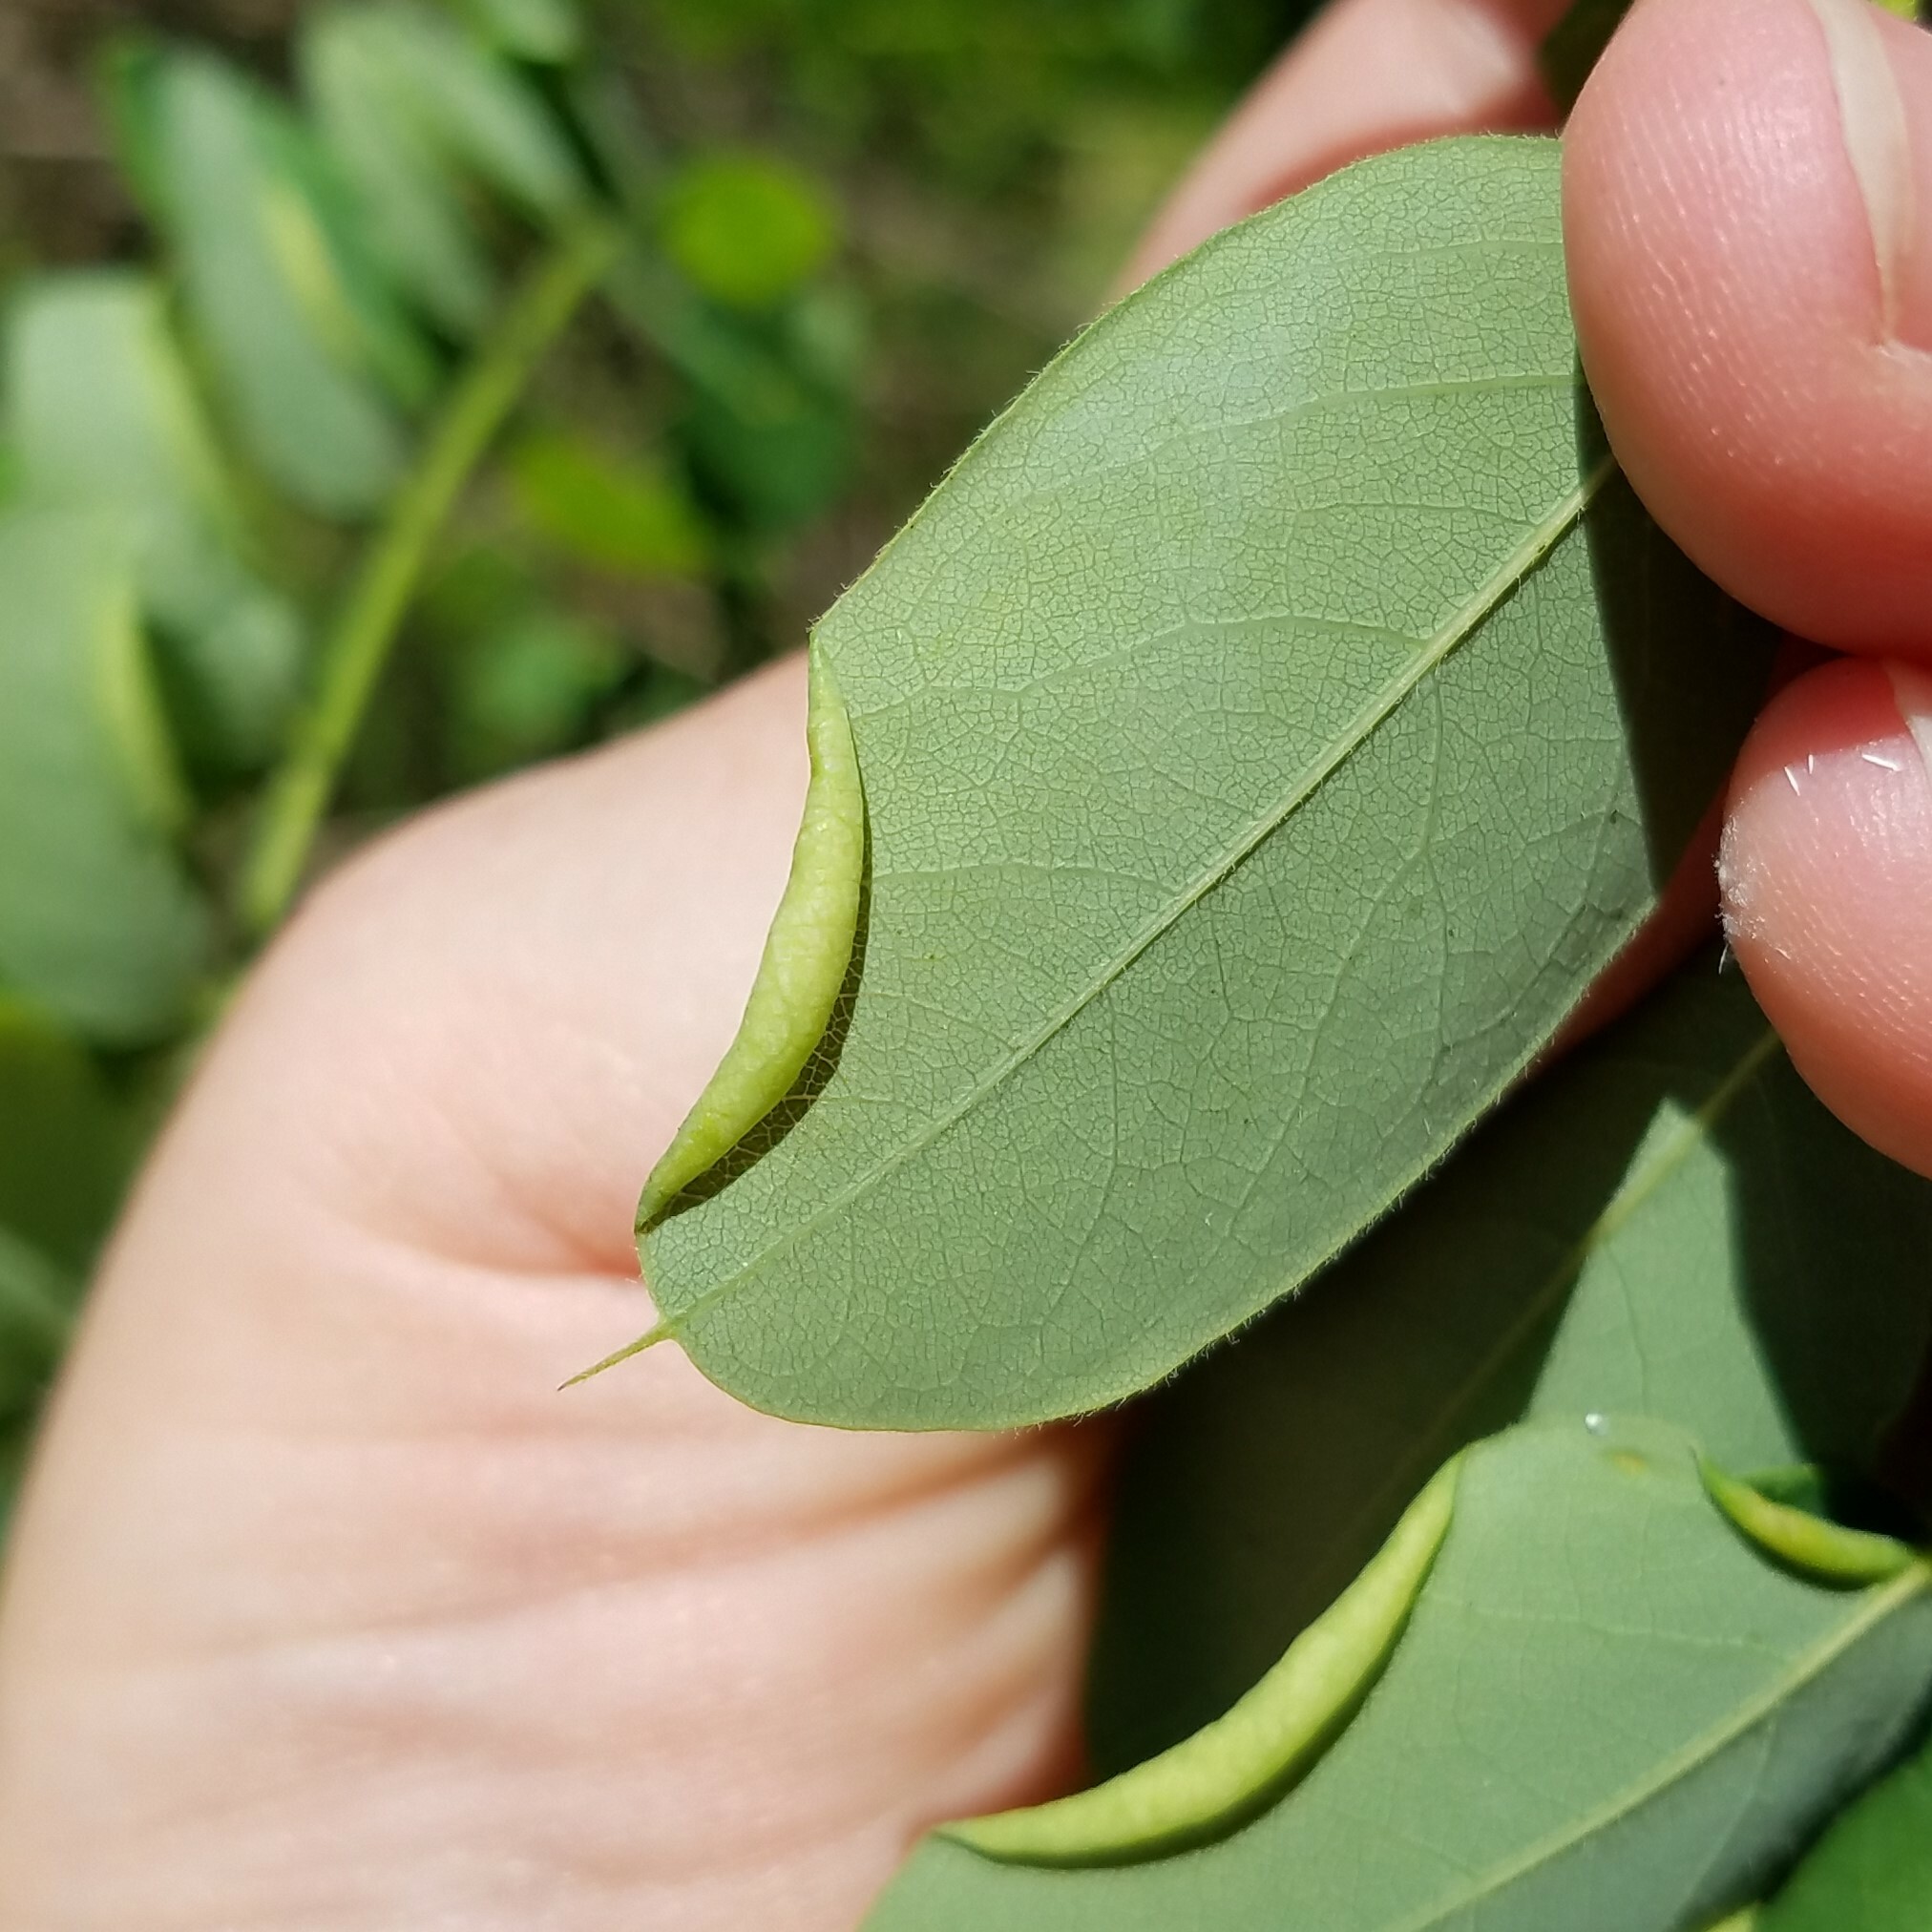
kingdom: Animalia
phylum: Arthropoda
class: Insecta
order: Diptera
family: Cecidomyiidae
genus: Obolodiplosis
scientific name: Obolodiplosis robiniae
